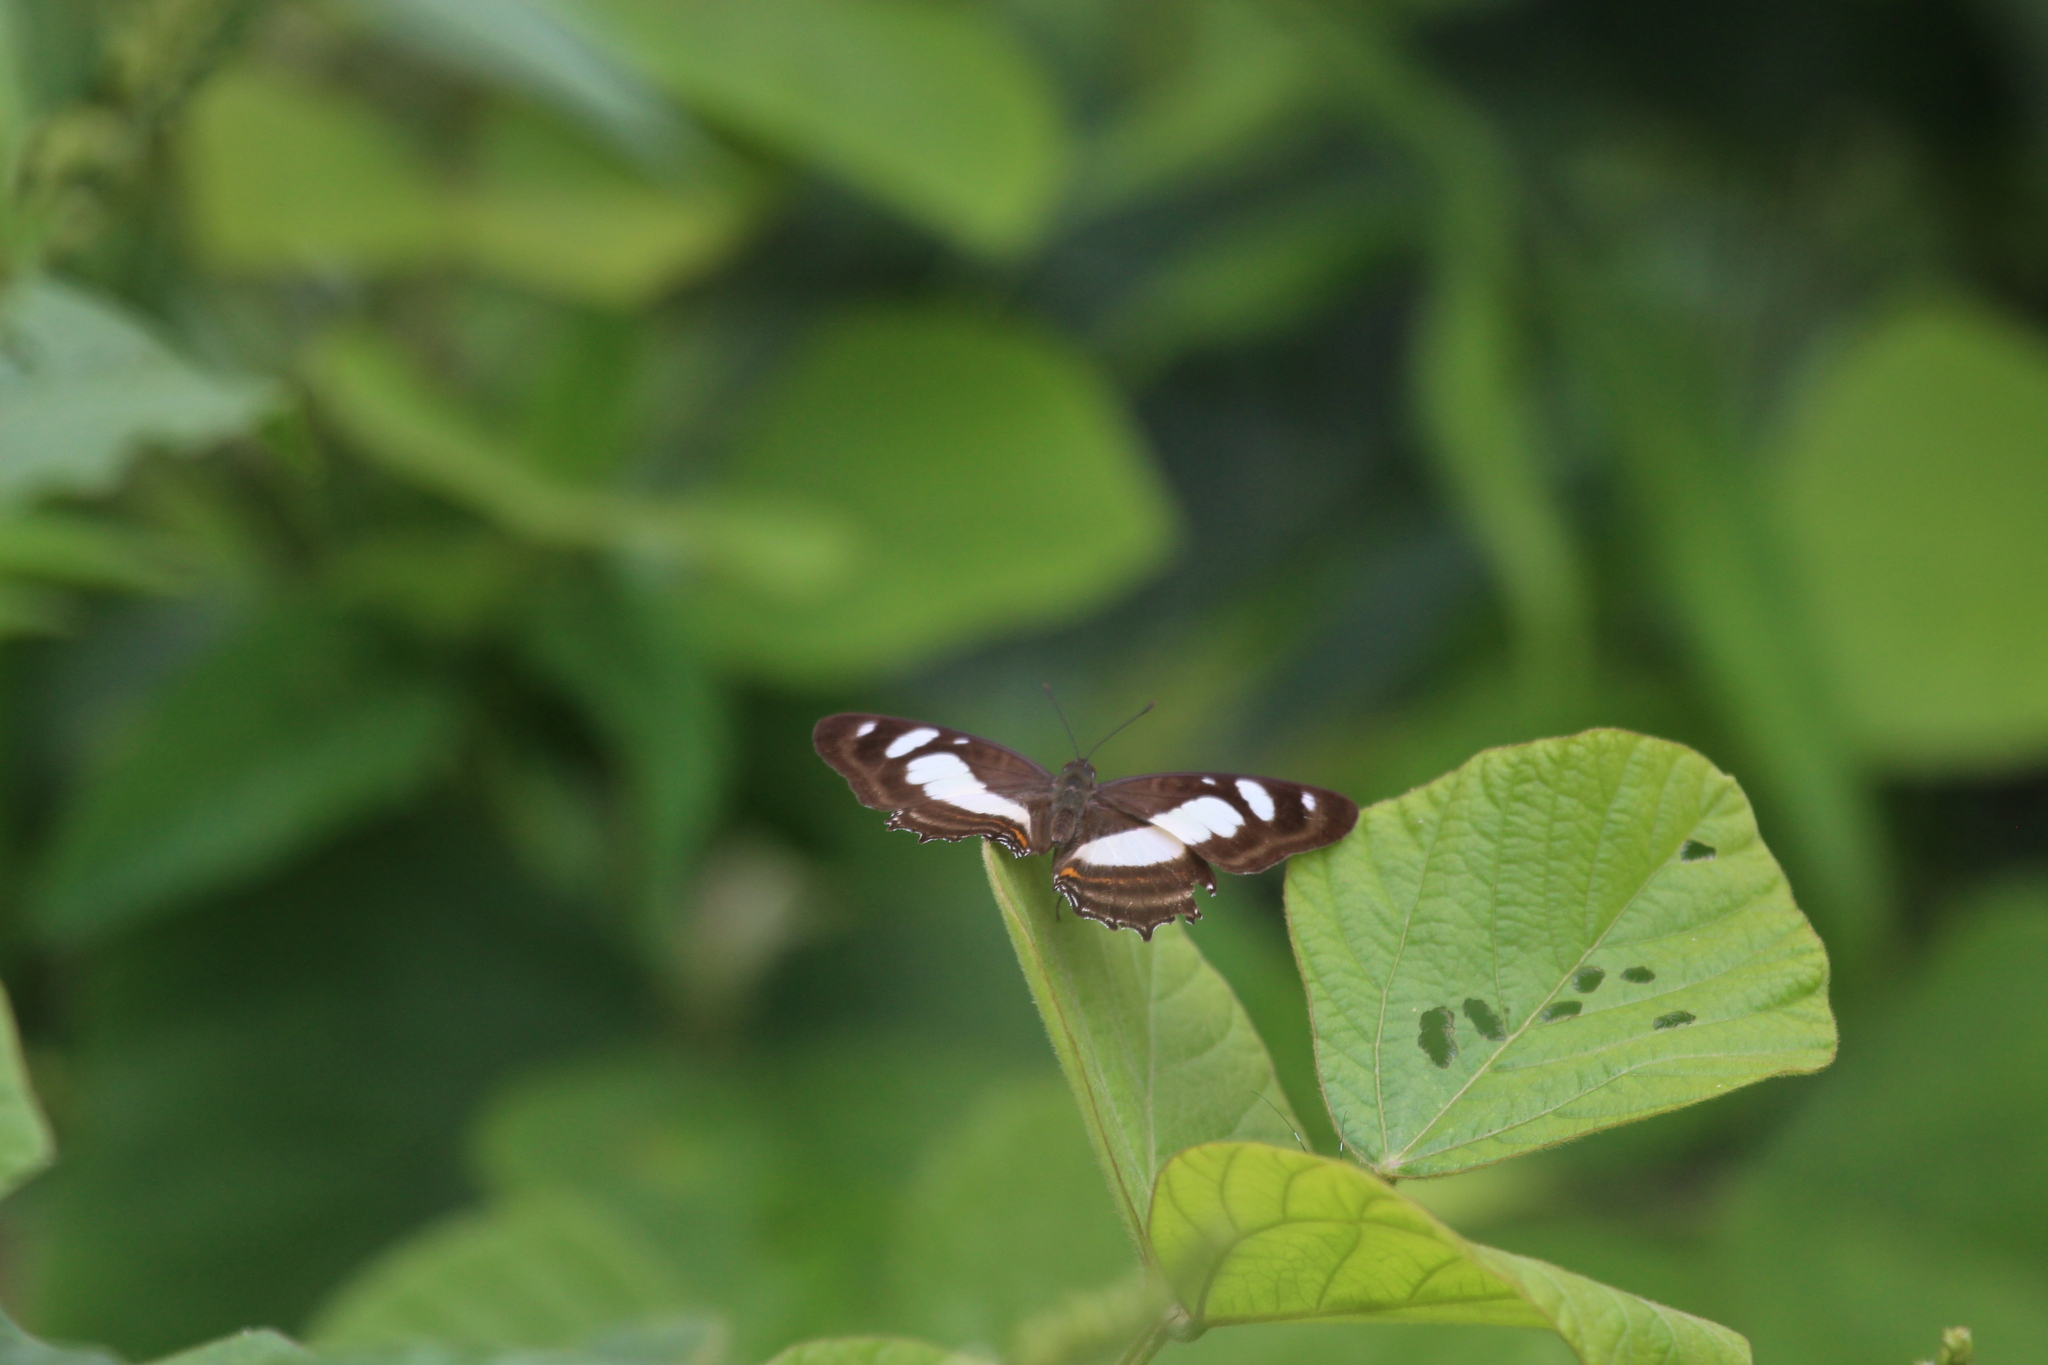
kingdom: Animalia
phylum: Arthropoda
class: Insecta
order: Lepidoptera
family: Nymphalidae
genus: Metamorpha
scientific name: Metamorpha elissa
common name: Elissa page
